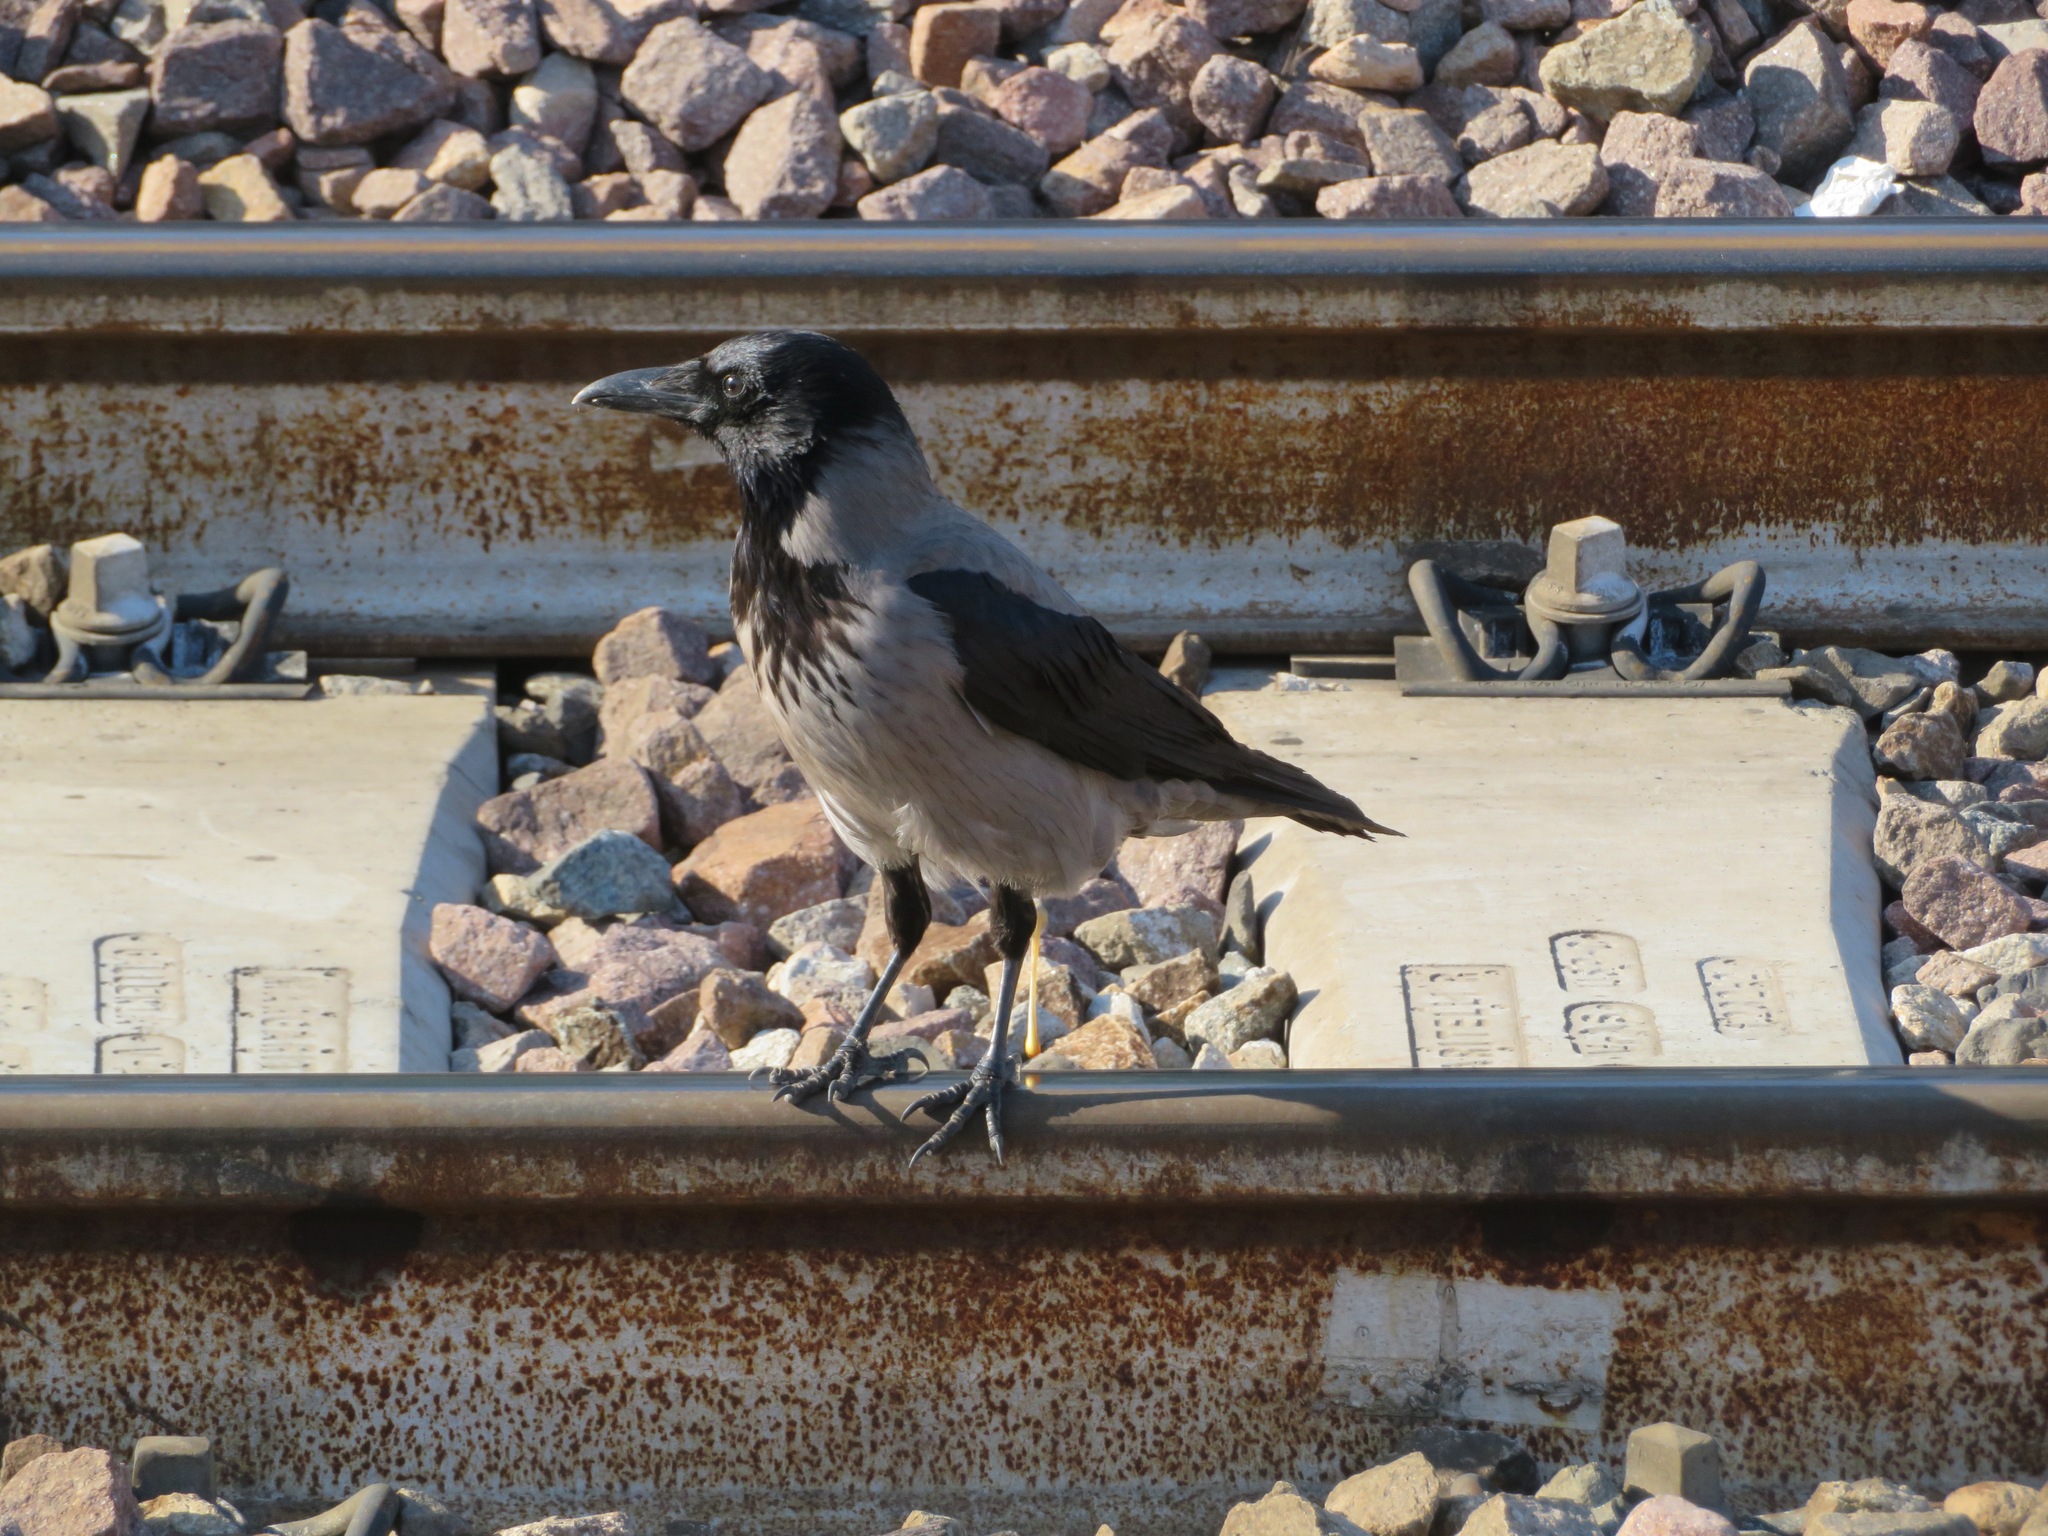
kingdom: Animalia
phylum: Chordata
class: Aves
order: Passeriformes
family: Corvidae
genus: Corvus
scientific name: Corvus cornix
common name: Hooded crow
